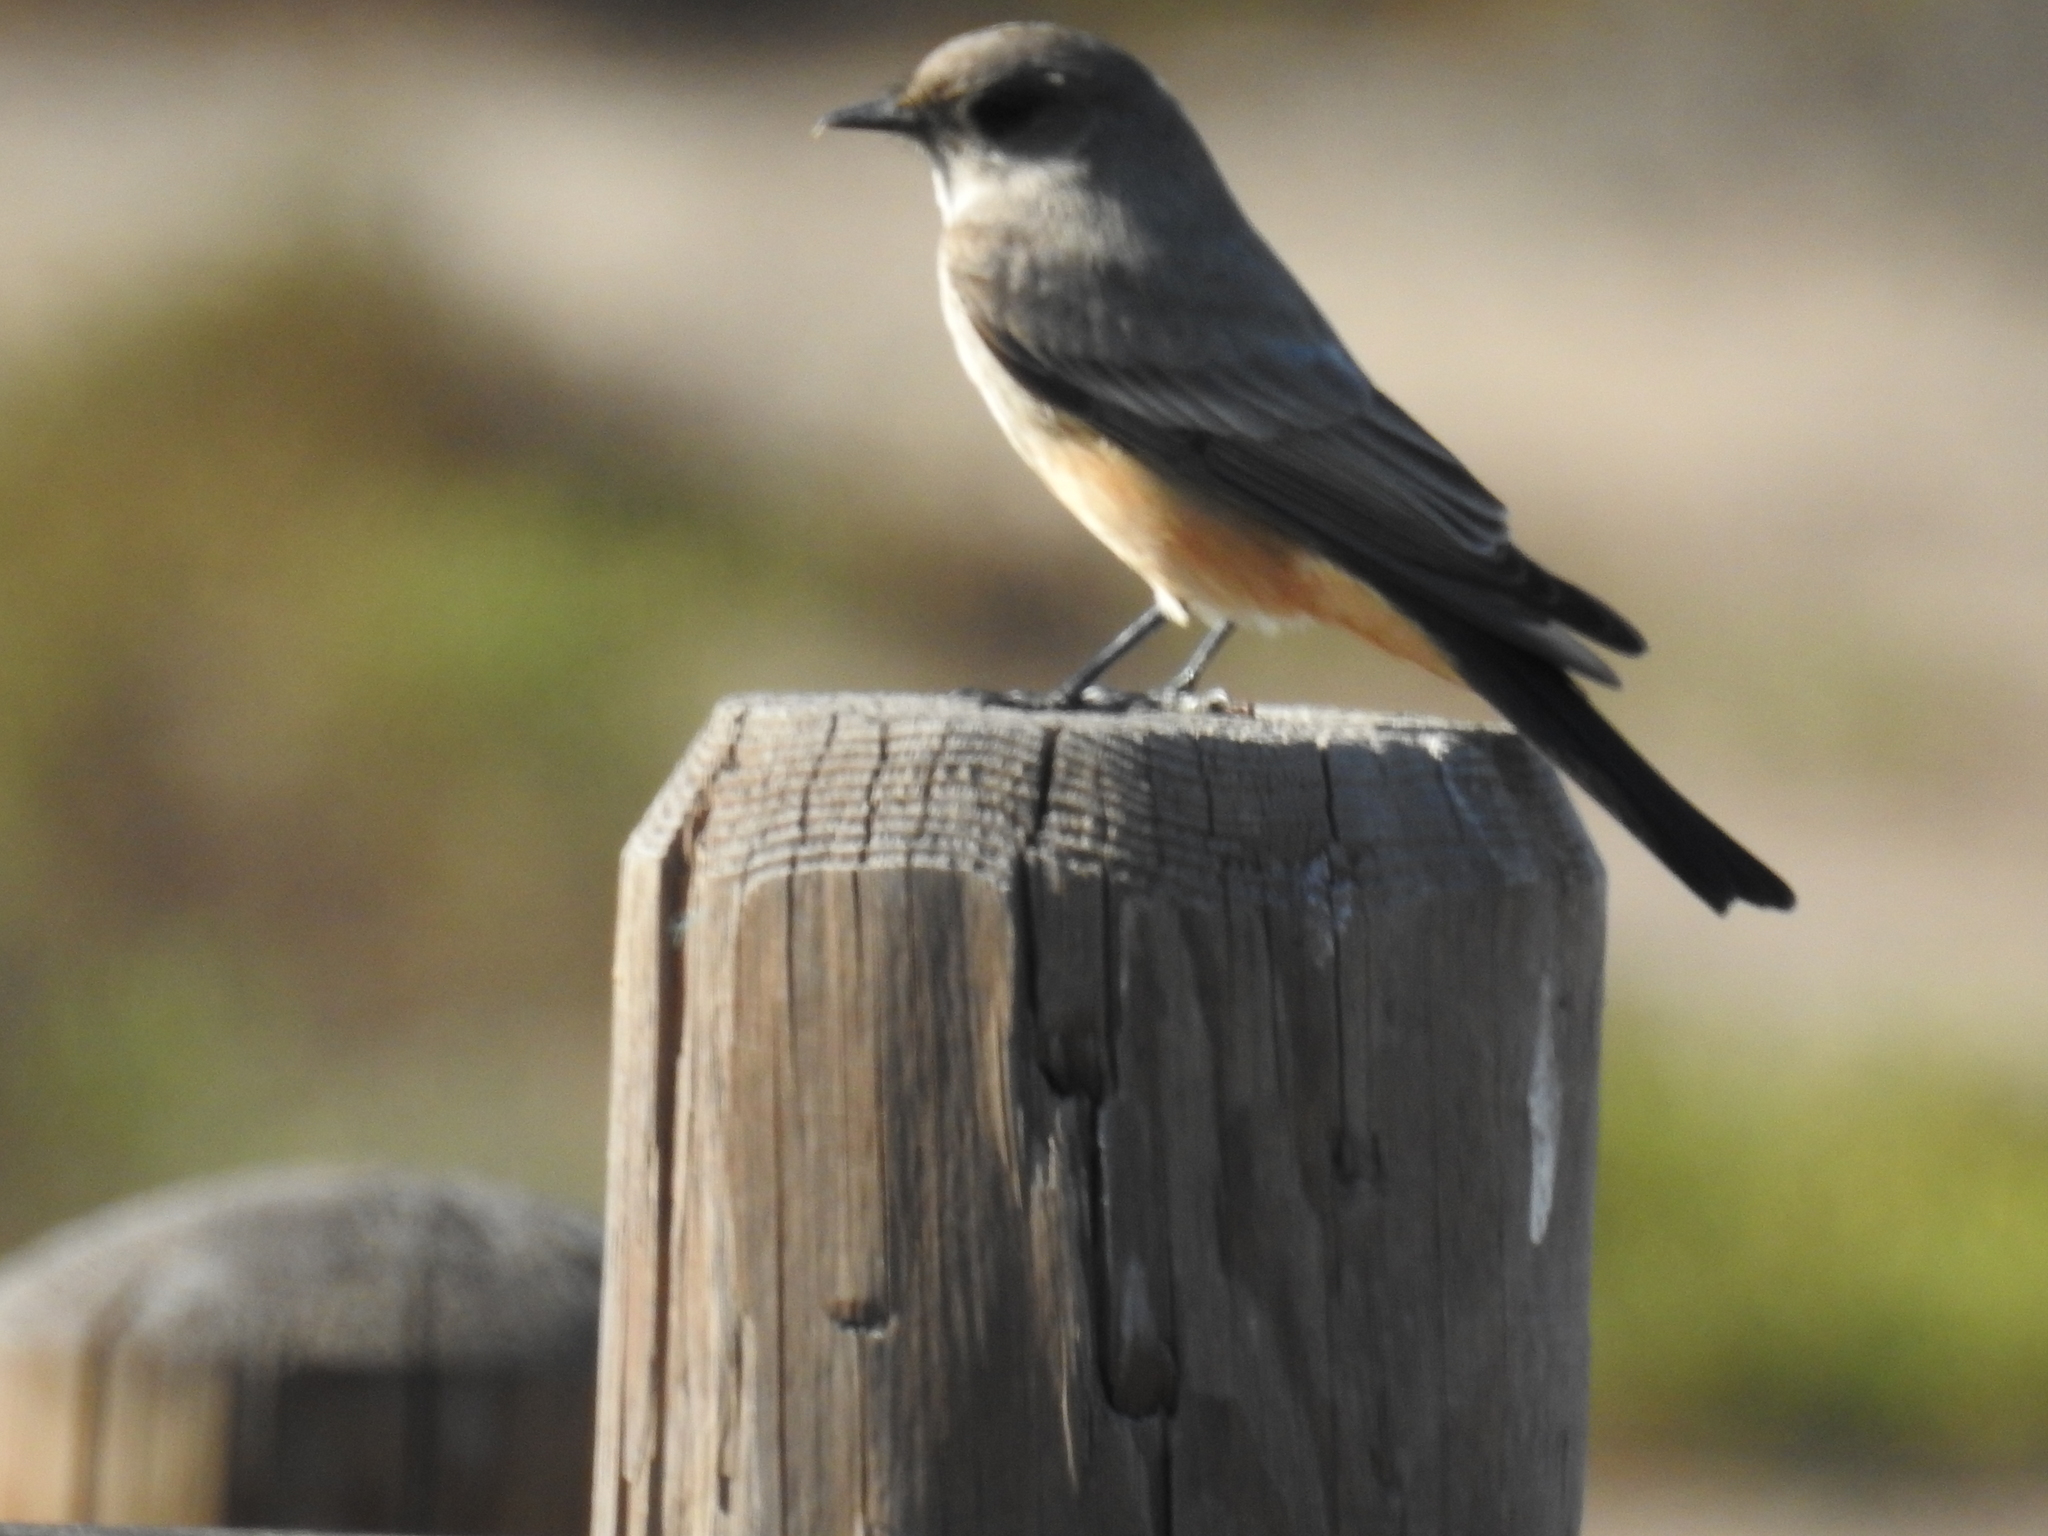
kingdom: Animalia
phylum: Chordata
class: Aves
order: Passeriformes
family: Tyrannidae
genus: Sayornis
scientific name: Sayornis saya
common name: Say's phoebe
